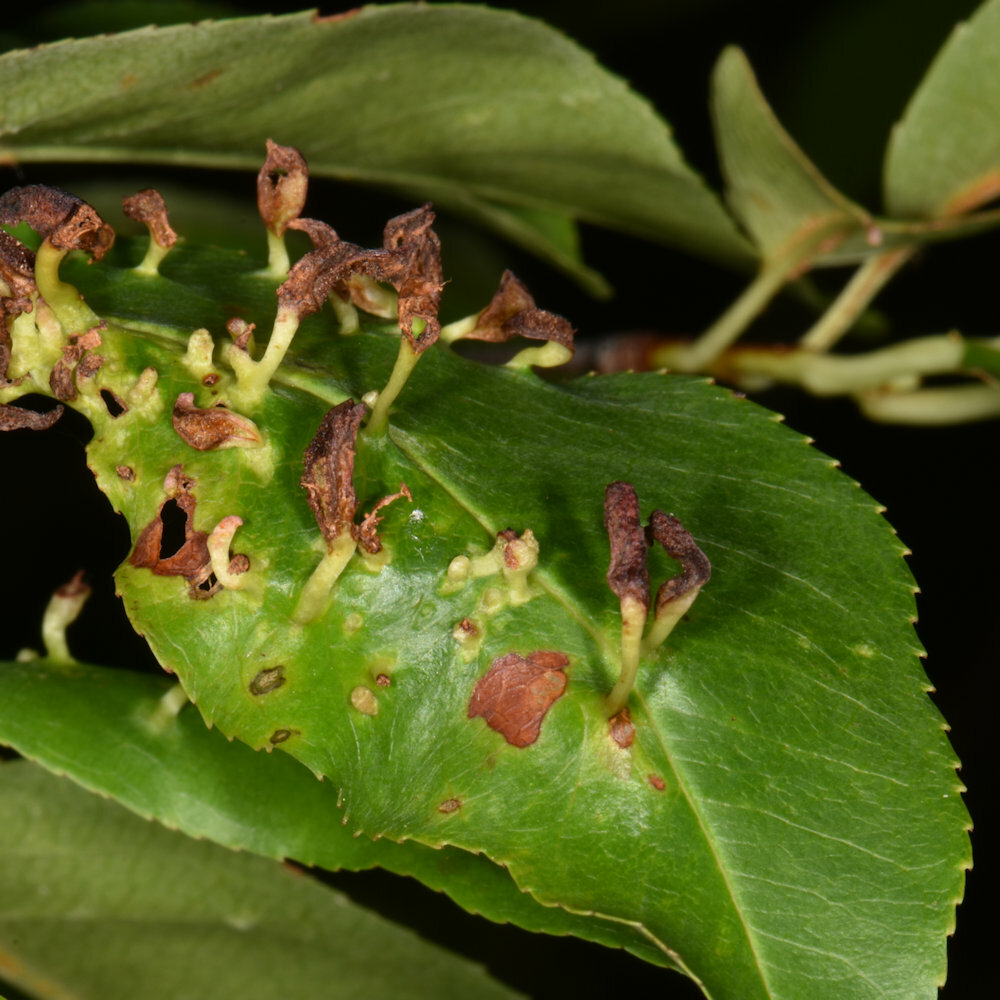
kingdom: Animalia
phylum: Arthropoda
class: Arachnida
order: Trombidiformes
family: Eriophyidae
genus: Eriophyes
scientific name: Eriophyes
